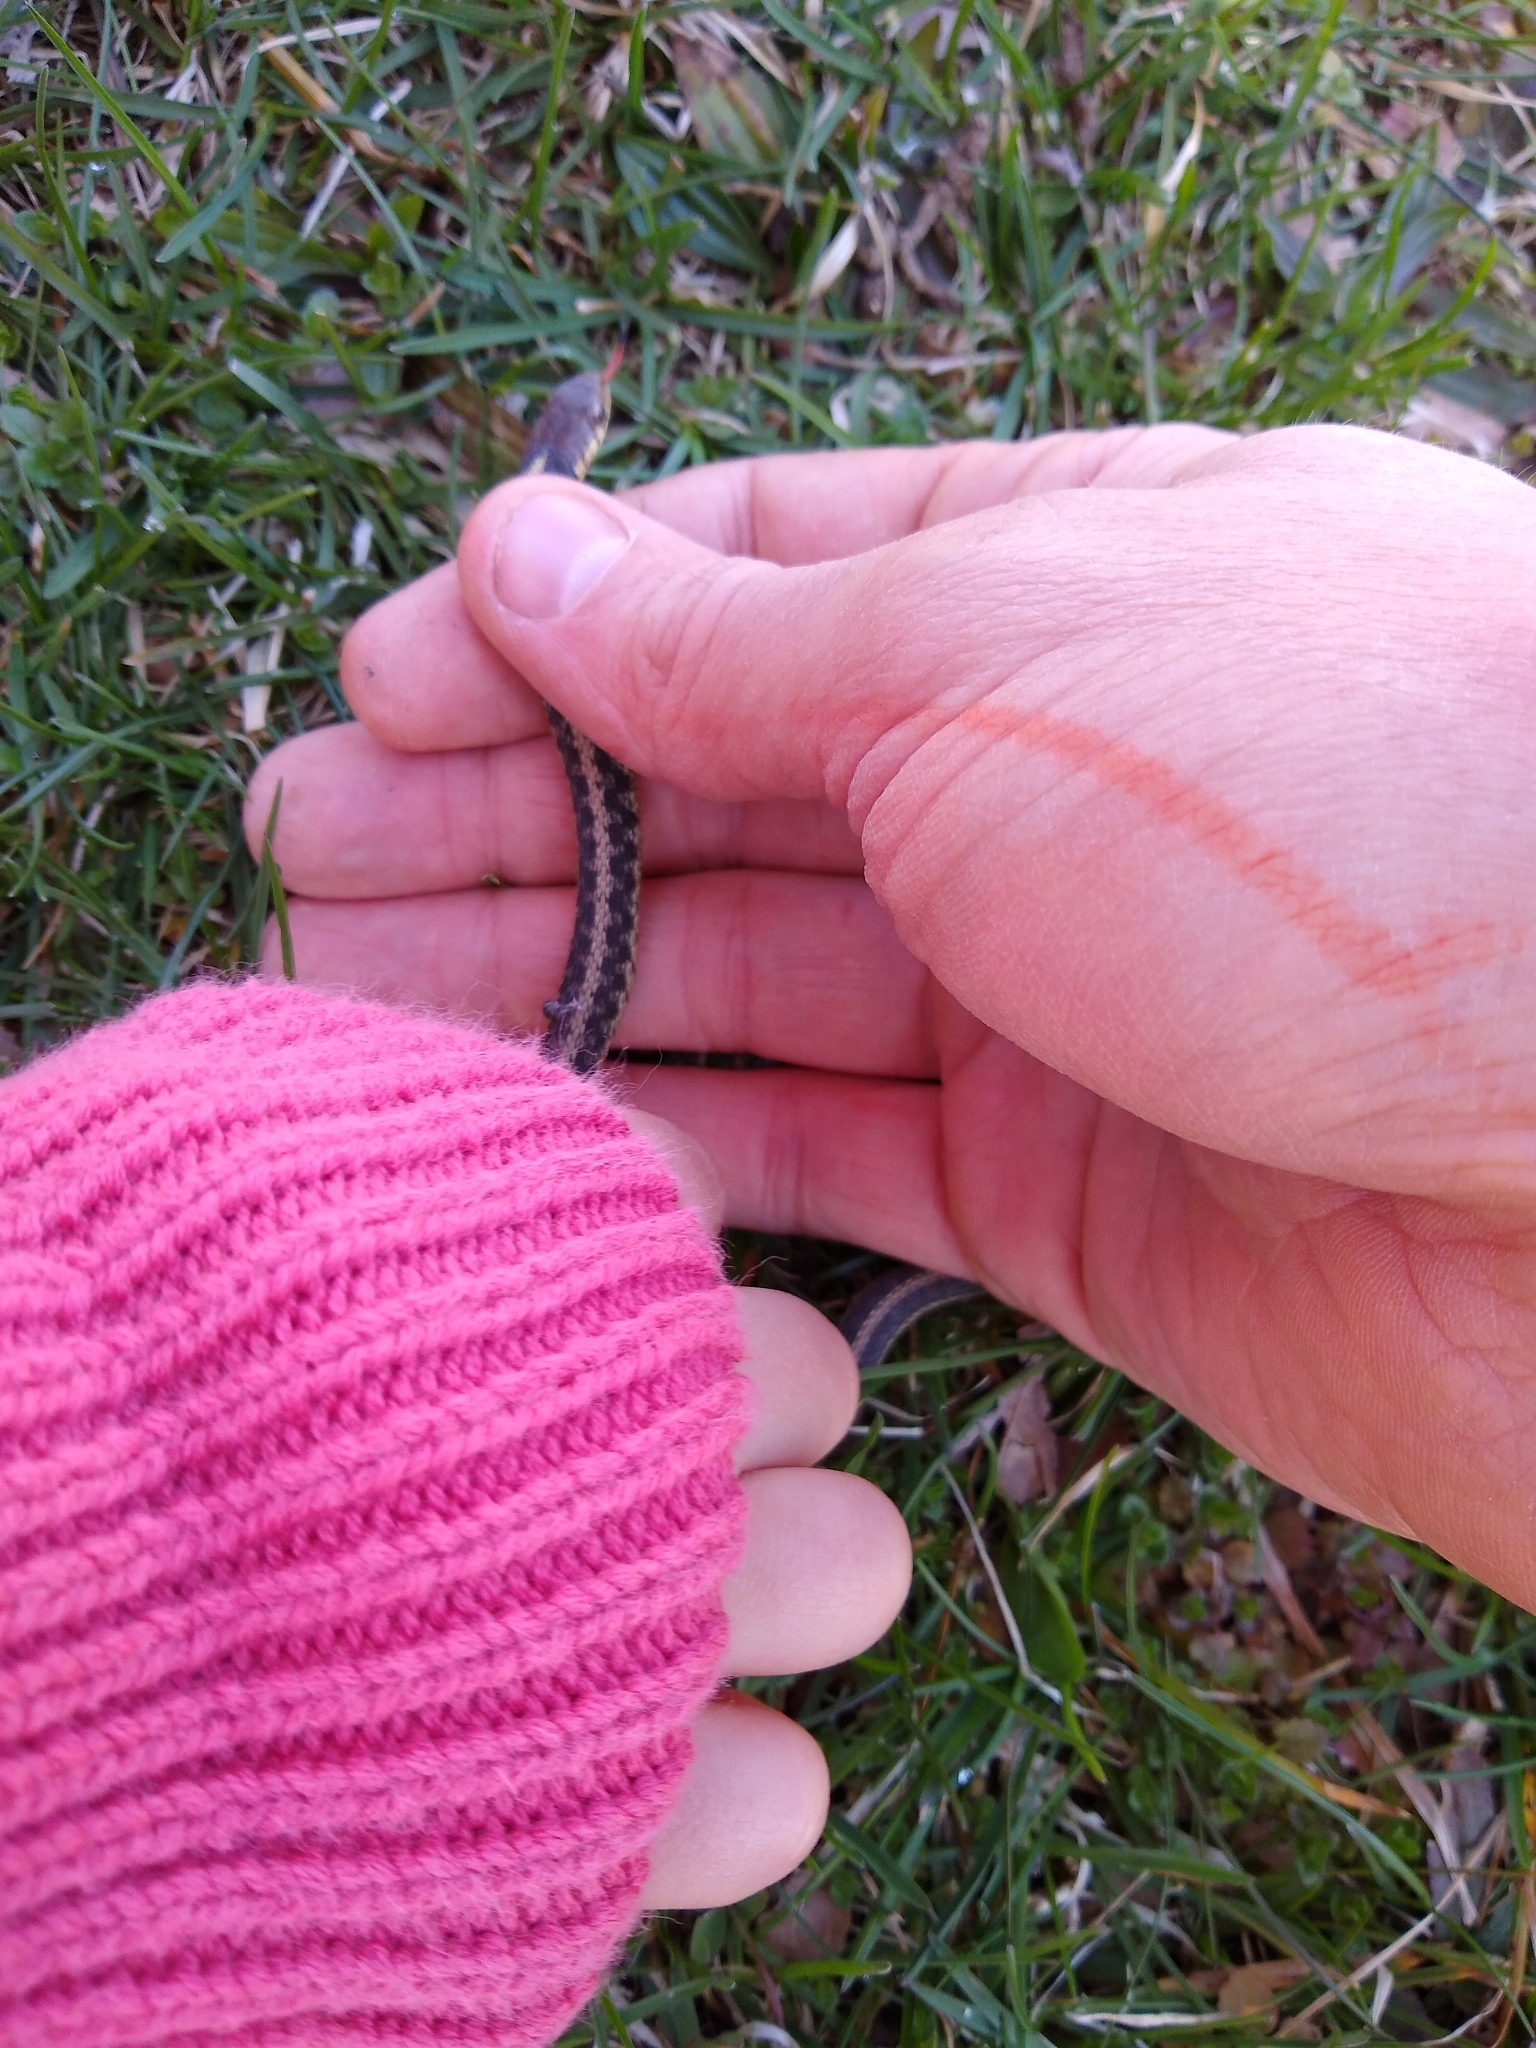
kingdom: Animalia
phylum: Chordata
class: Squamata
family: Colubridae
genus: Thamnophis
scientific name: Thamnophis sirtalis
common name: Common garter snake
